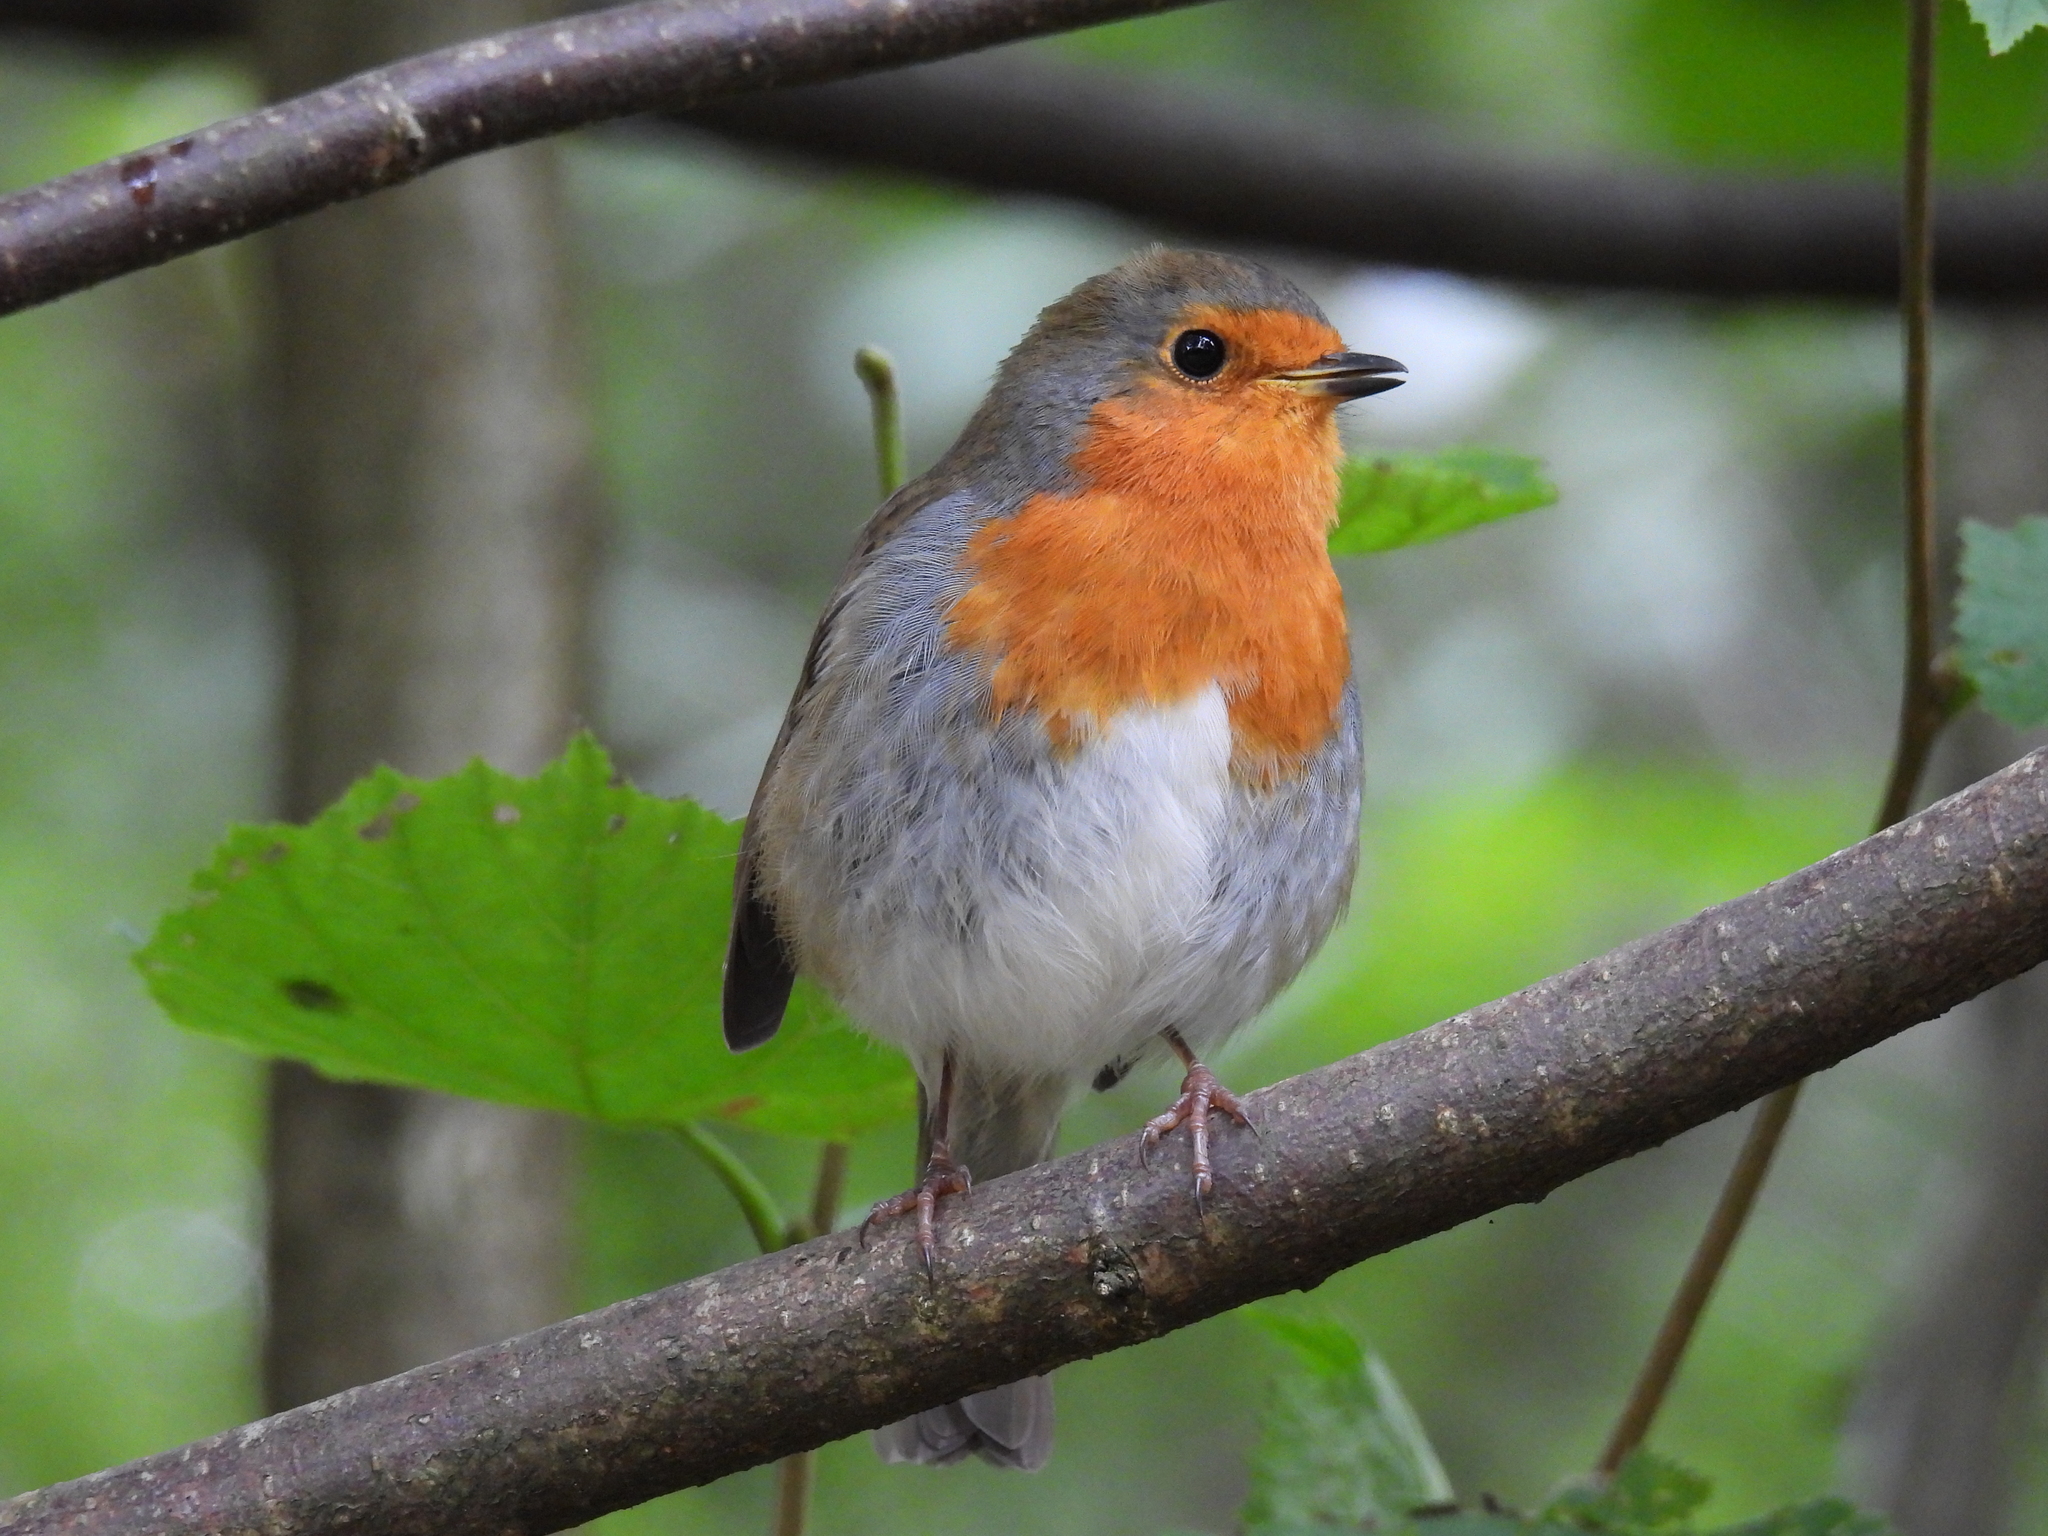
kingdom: Animalia
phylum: Chordata
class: Aves
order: Passeriformes
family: Muscicapidae
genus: Erithacus
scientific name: Erithacus rubecula
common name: European robin
